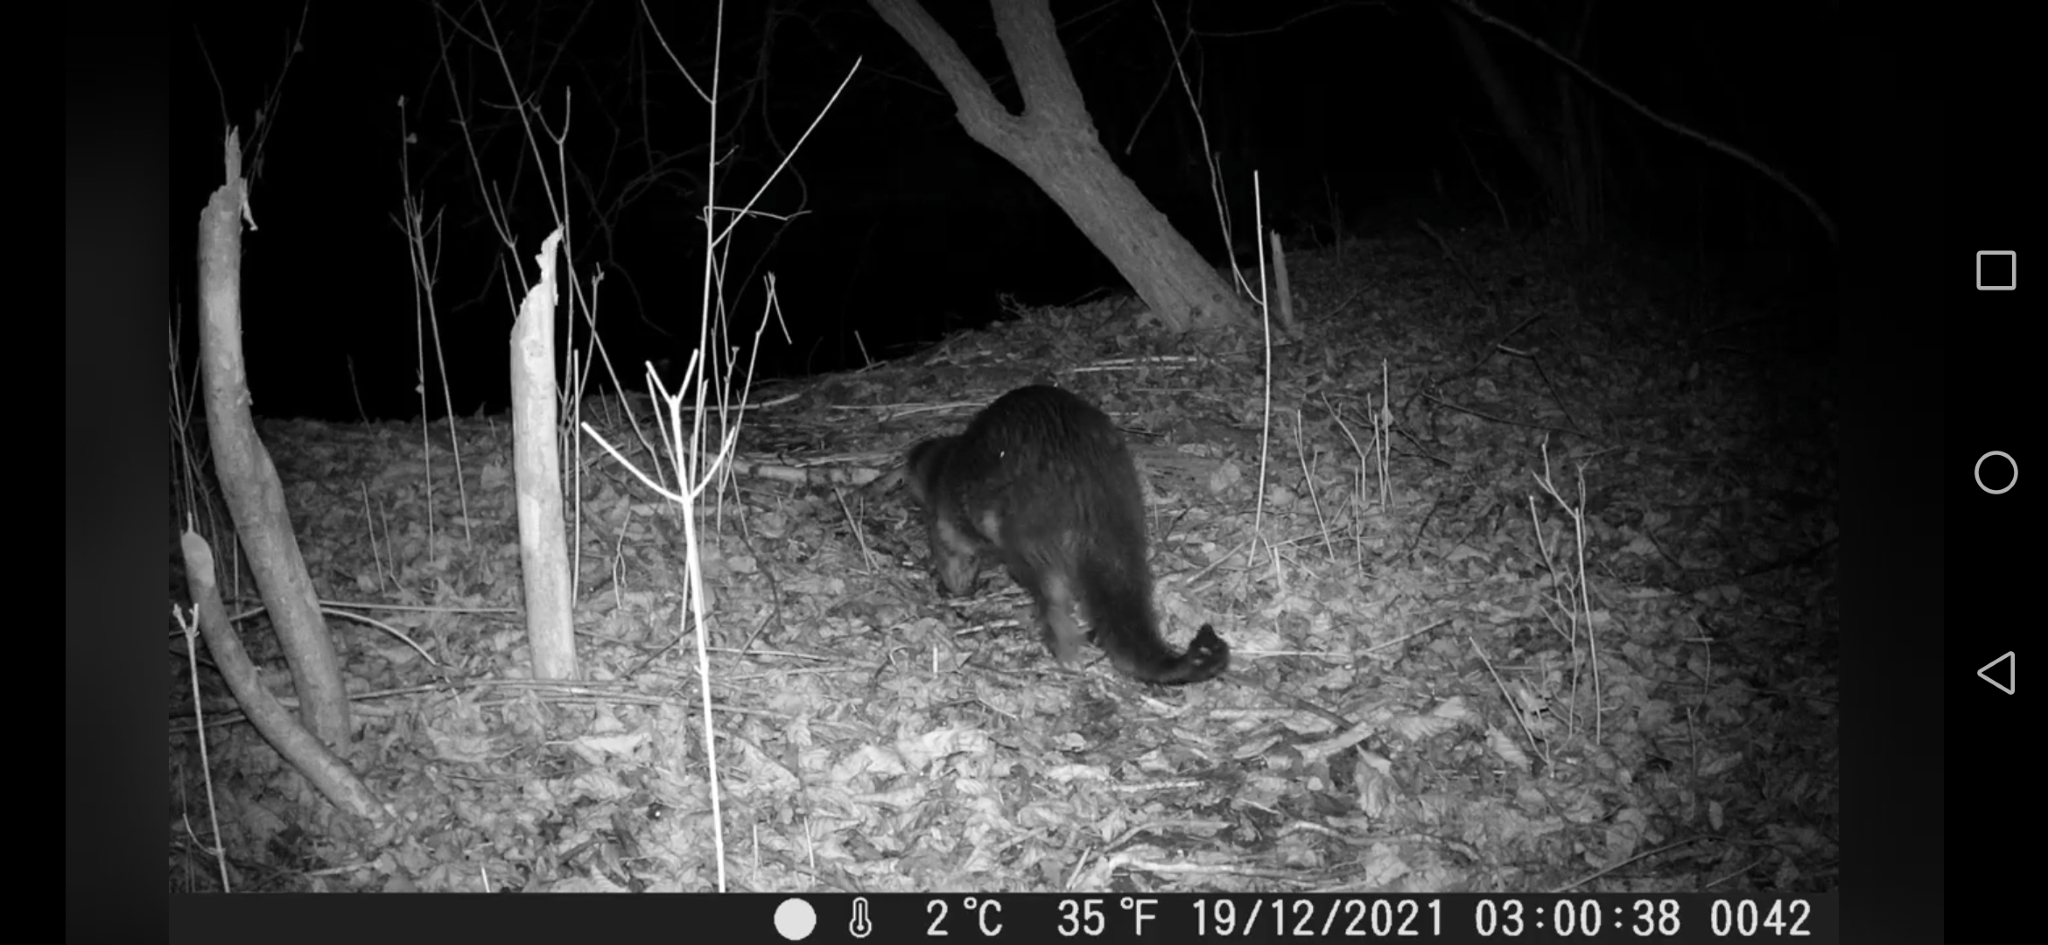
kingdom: Animalia
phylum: Chordata
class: Mammalia
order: Carnivora
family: Mustelidae
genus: Lutra
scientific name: Lutra lutra
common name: European otter
